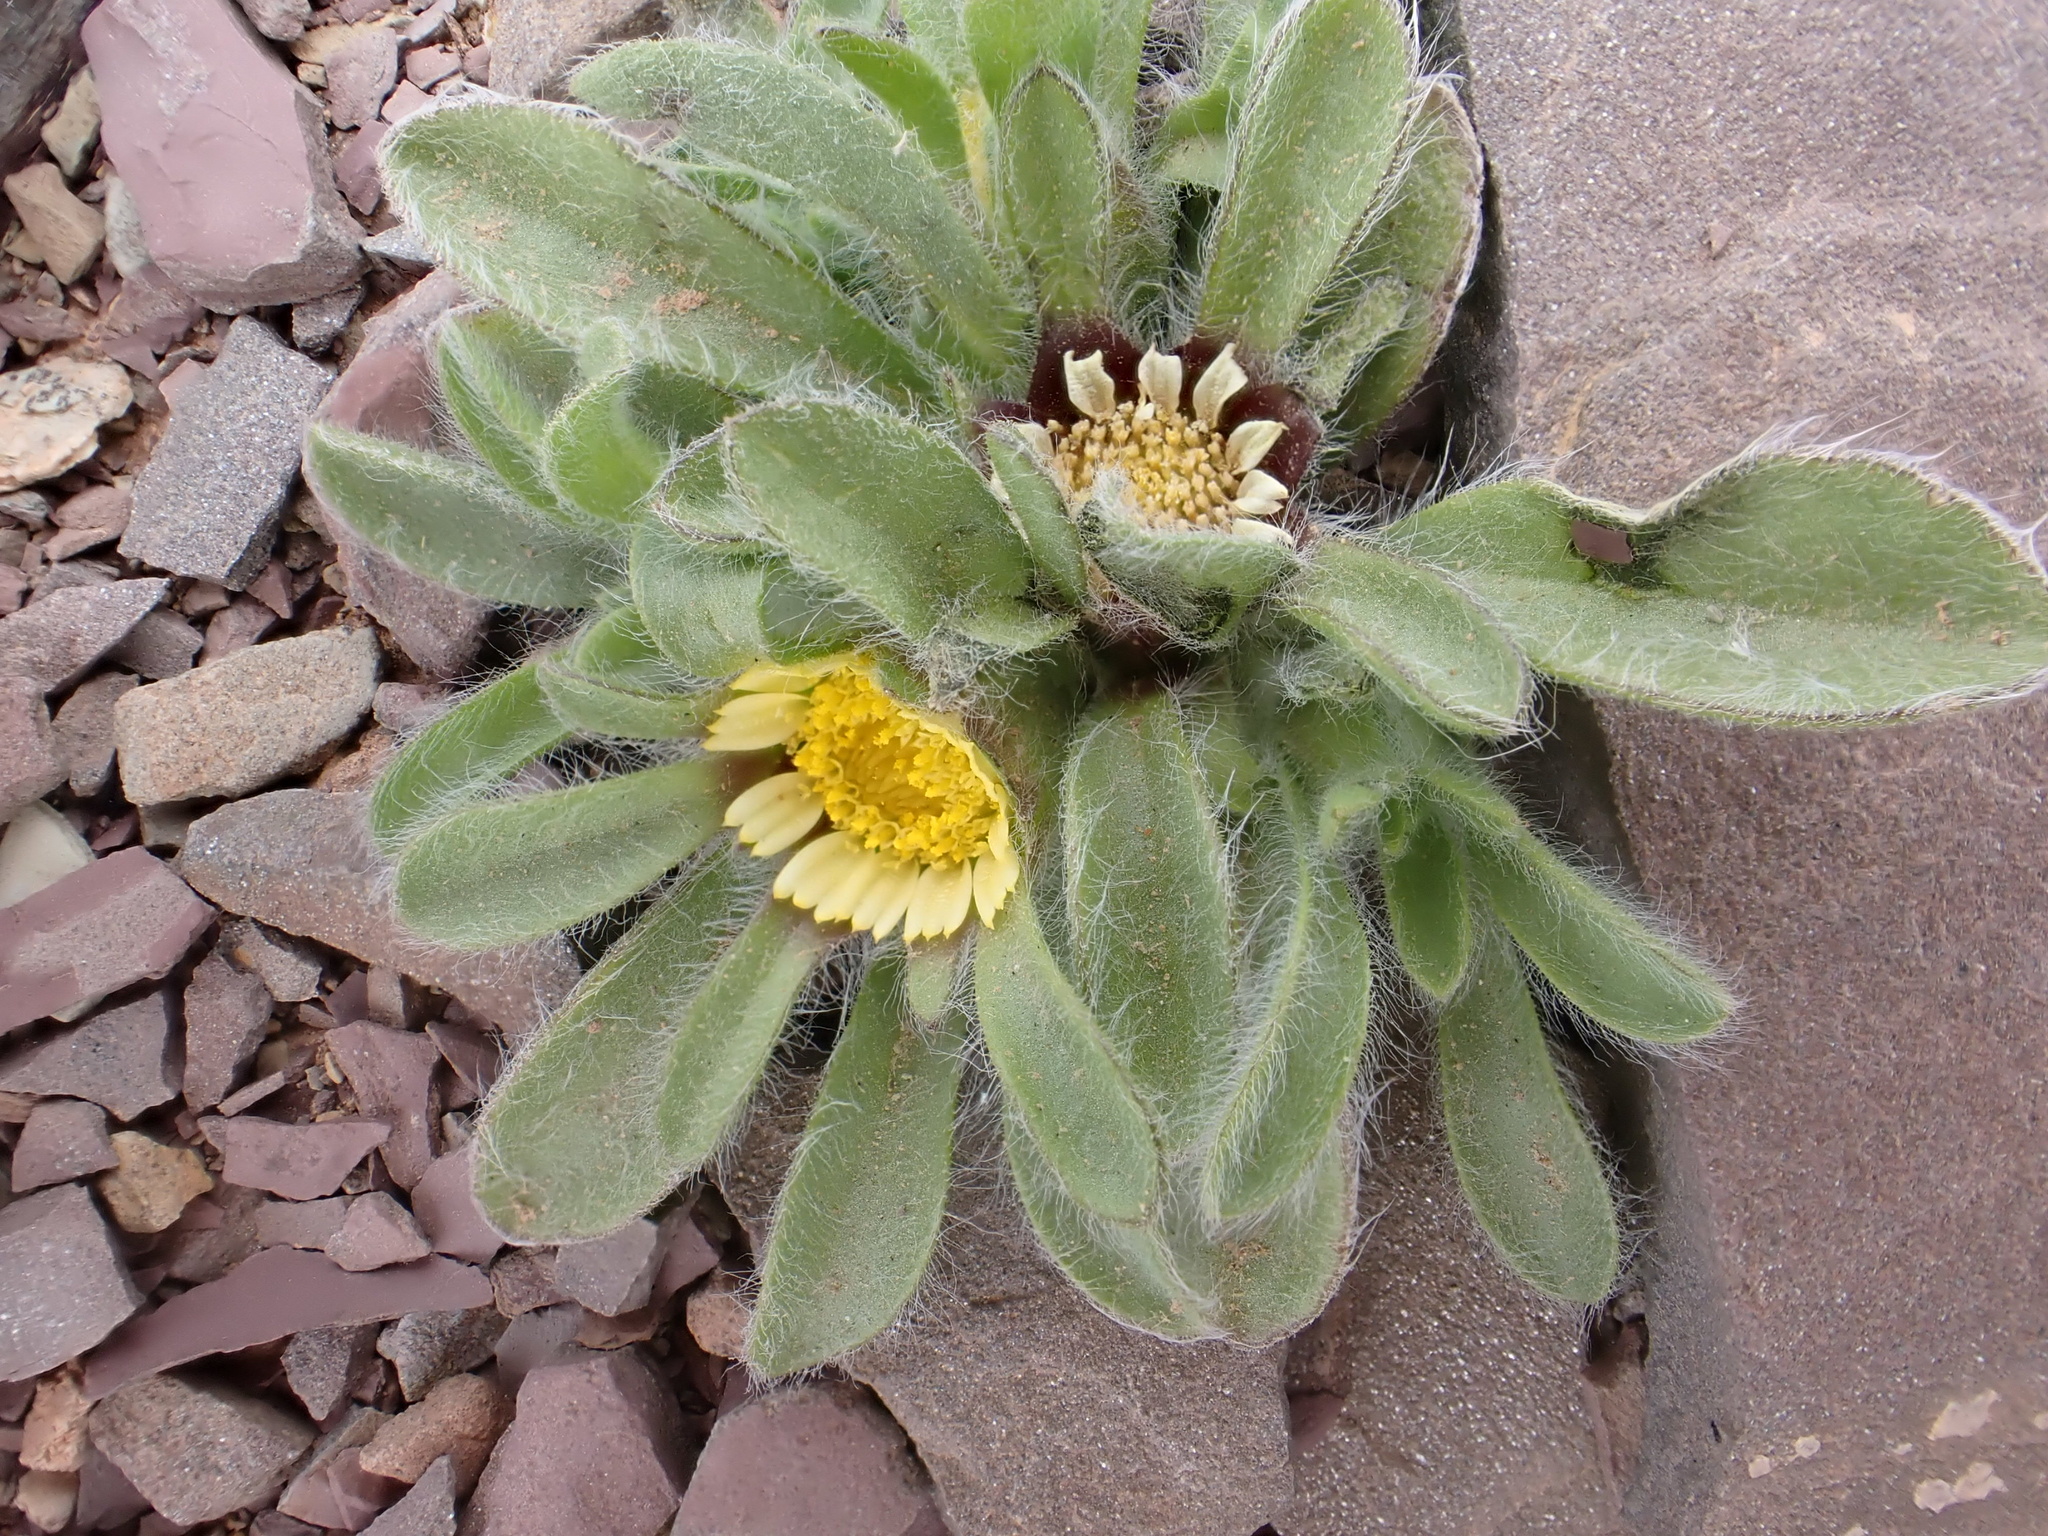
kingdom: Plantae
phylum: Tracheophyta
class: Magnoliopsida
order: Asterales
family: Asteraceae
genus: Pallenis
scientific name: Pallenis hierochuntica
